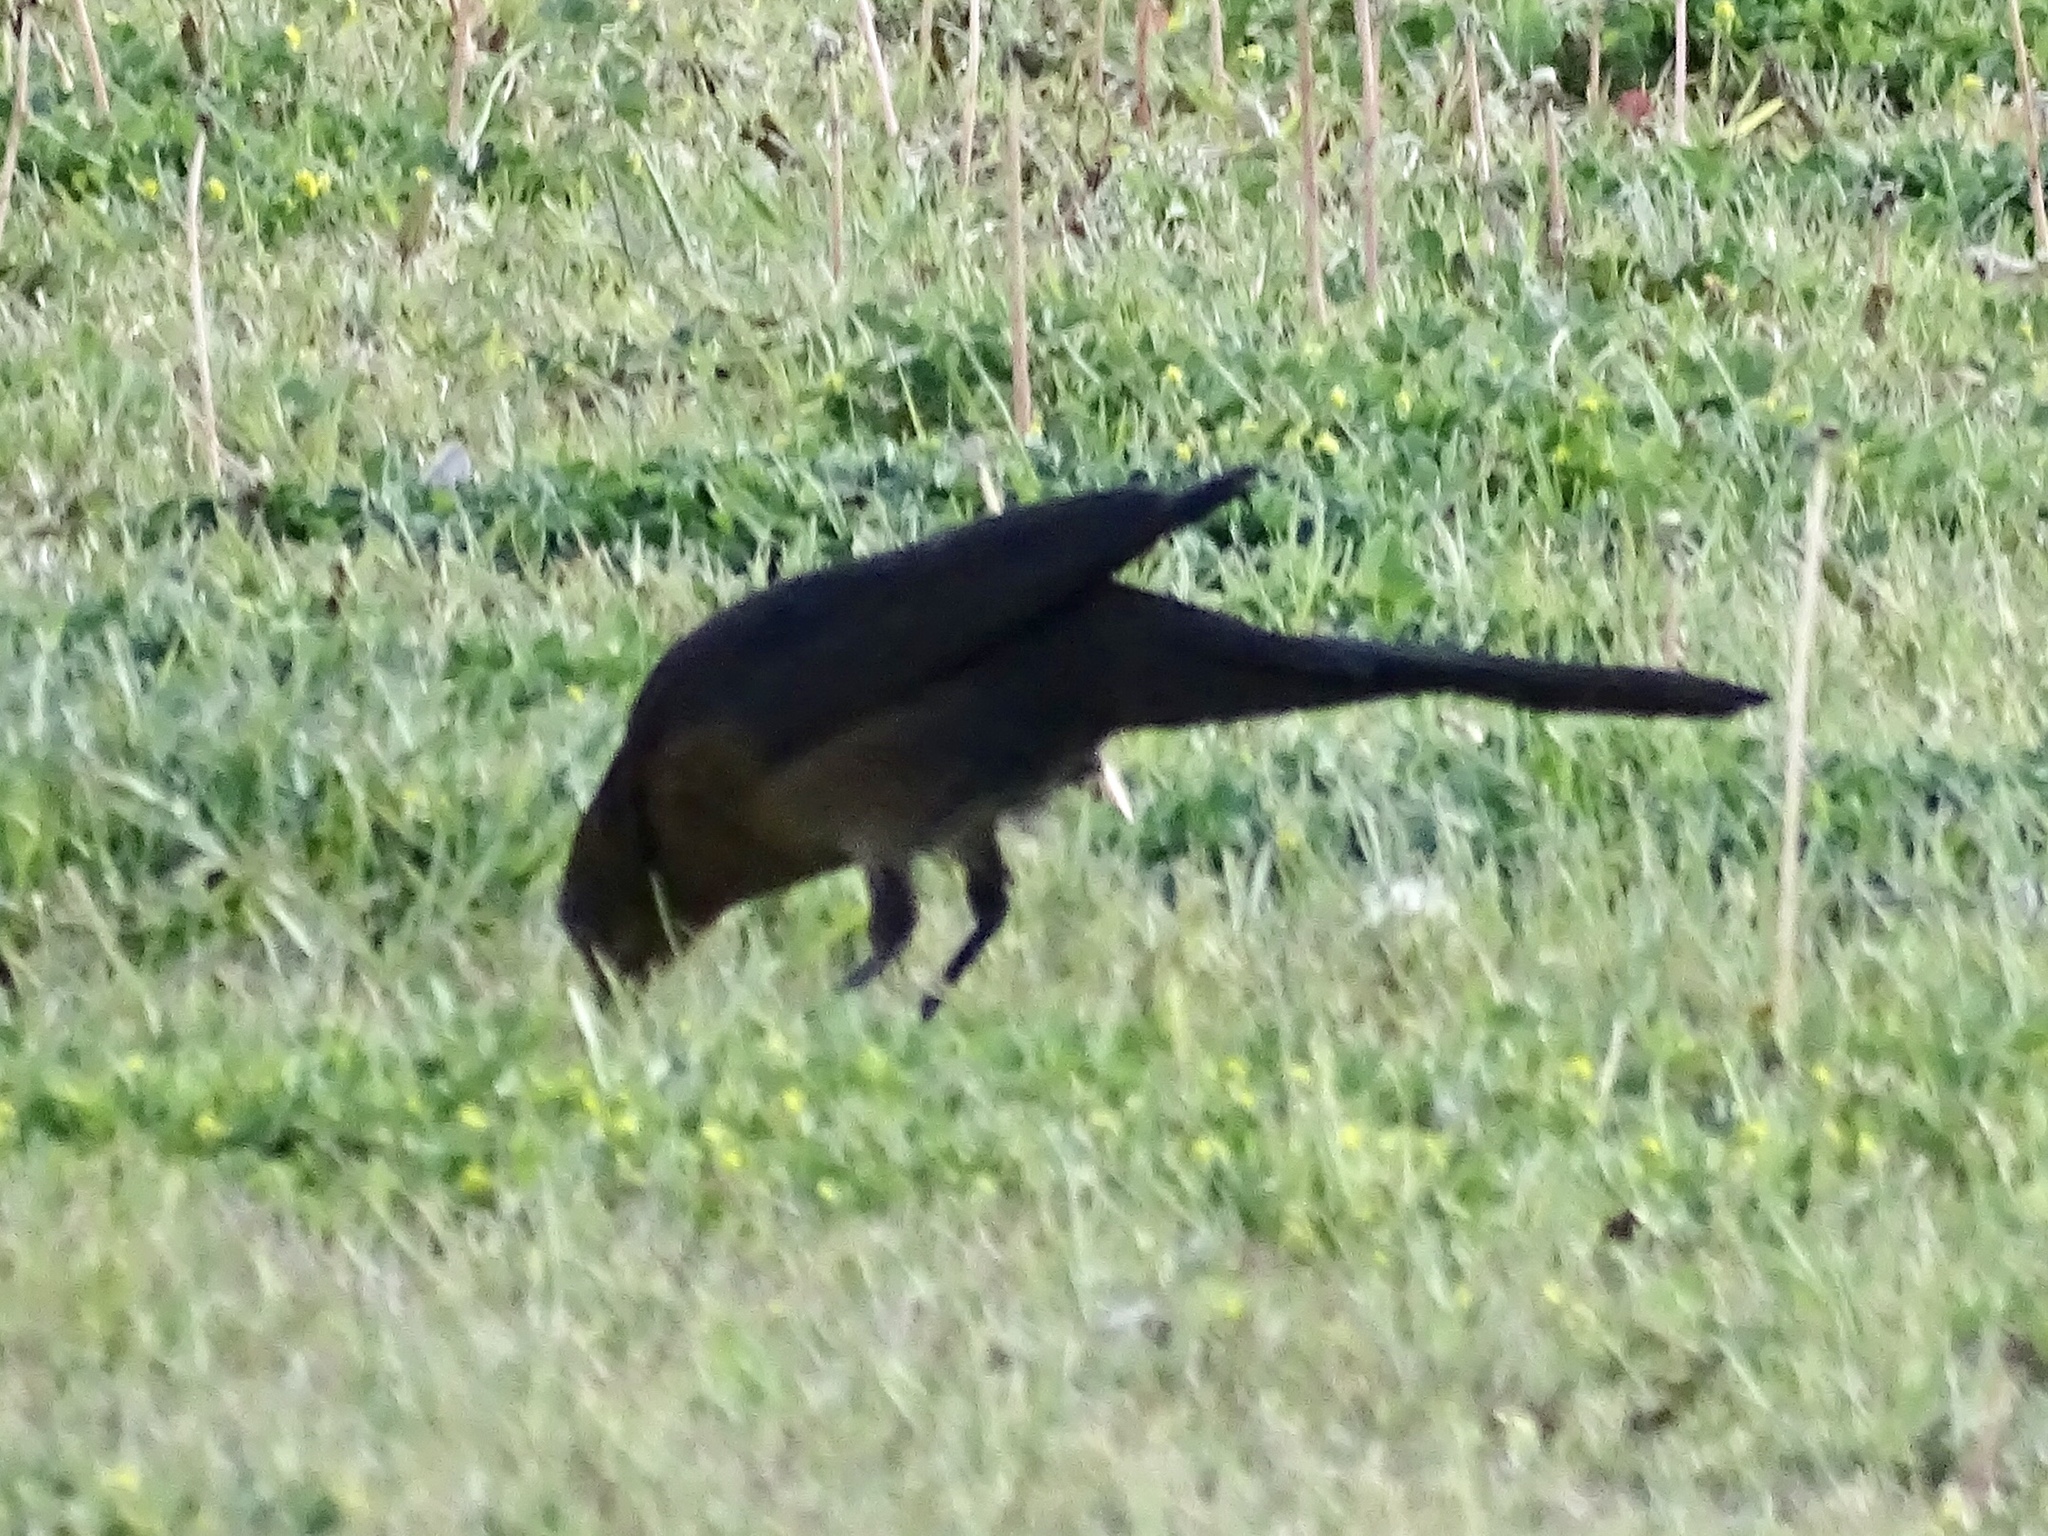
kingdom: Animalia
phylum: Chordata
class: Aves
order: Passeriformes
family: Icteridae
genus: Quiscalus
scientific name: Quiscalus mexicanus
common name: Great-tailed grackle
